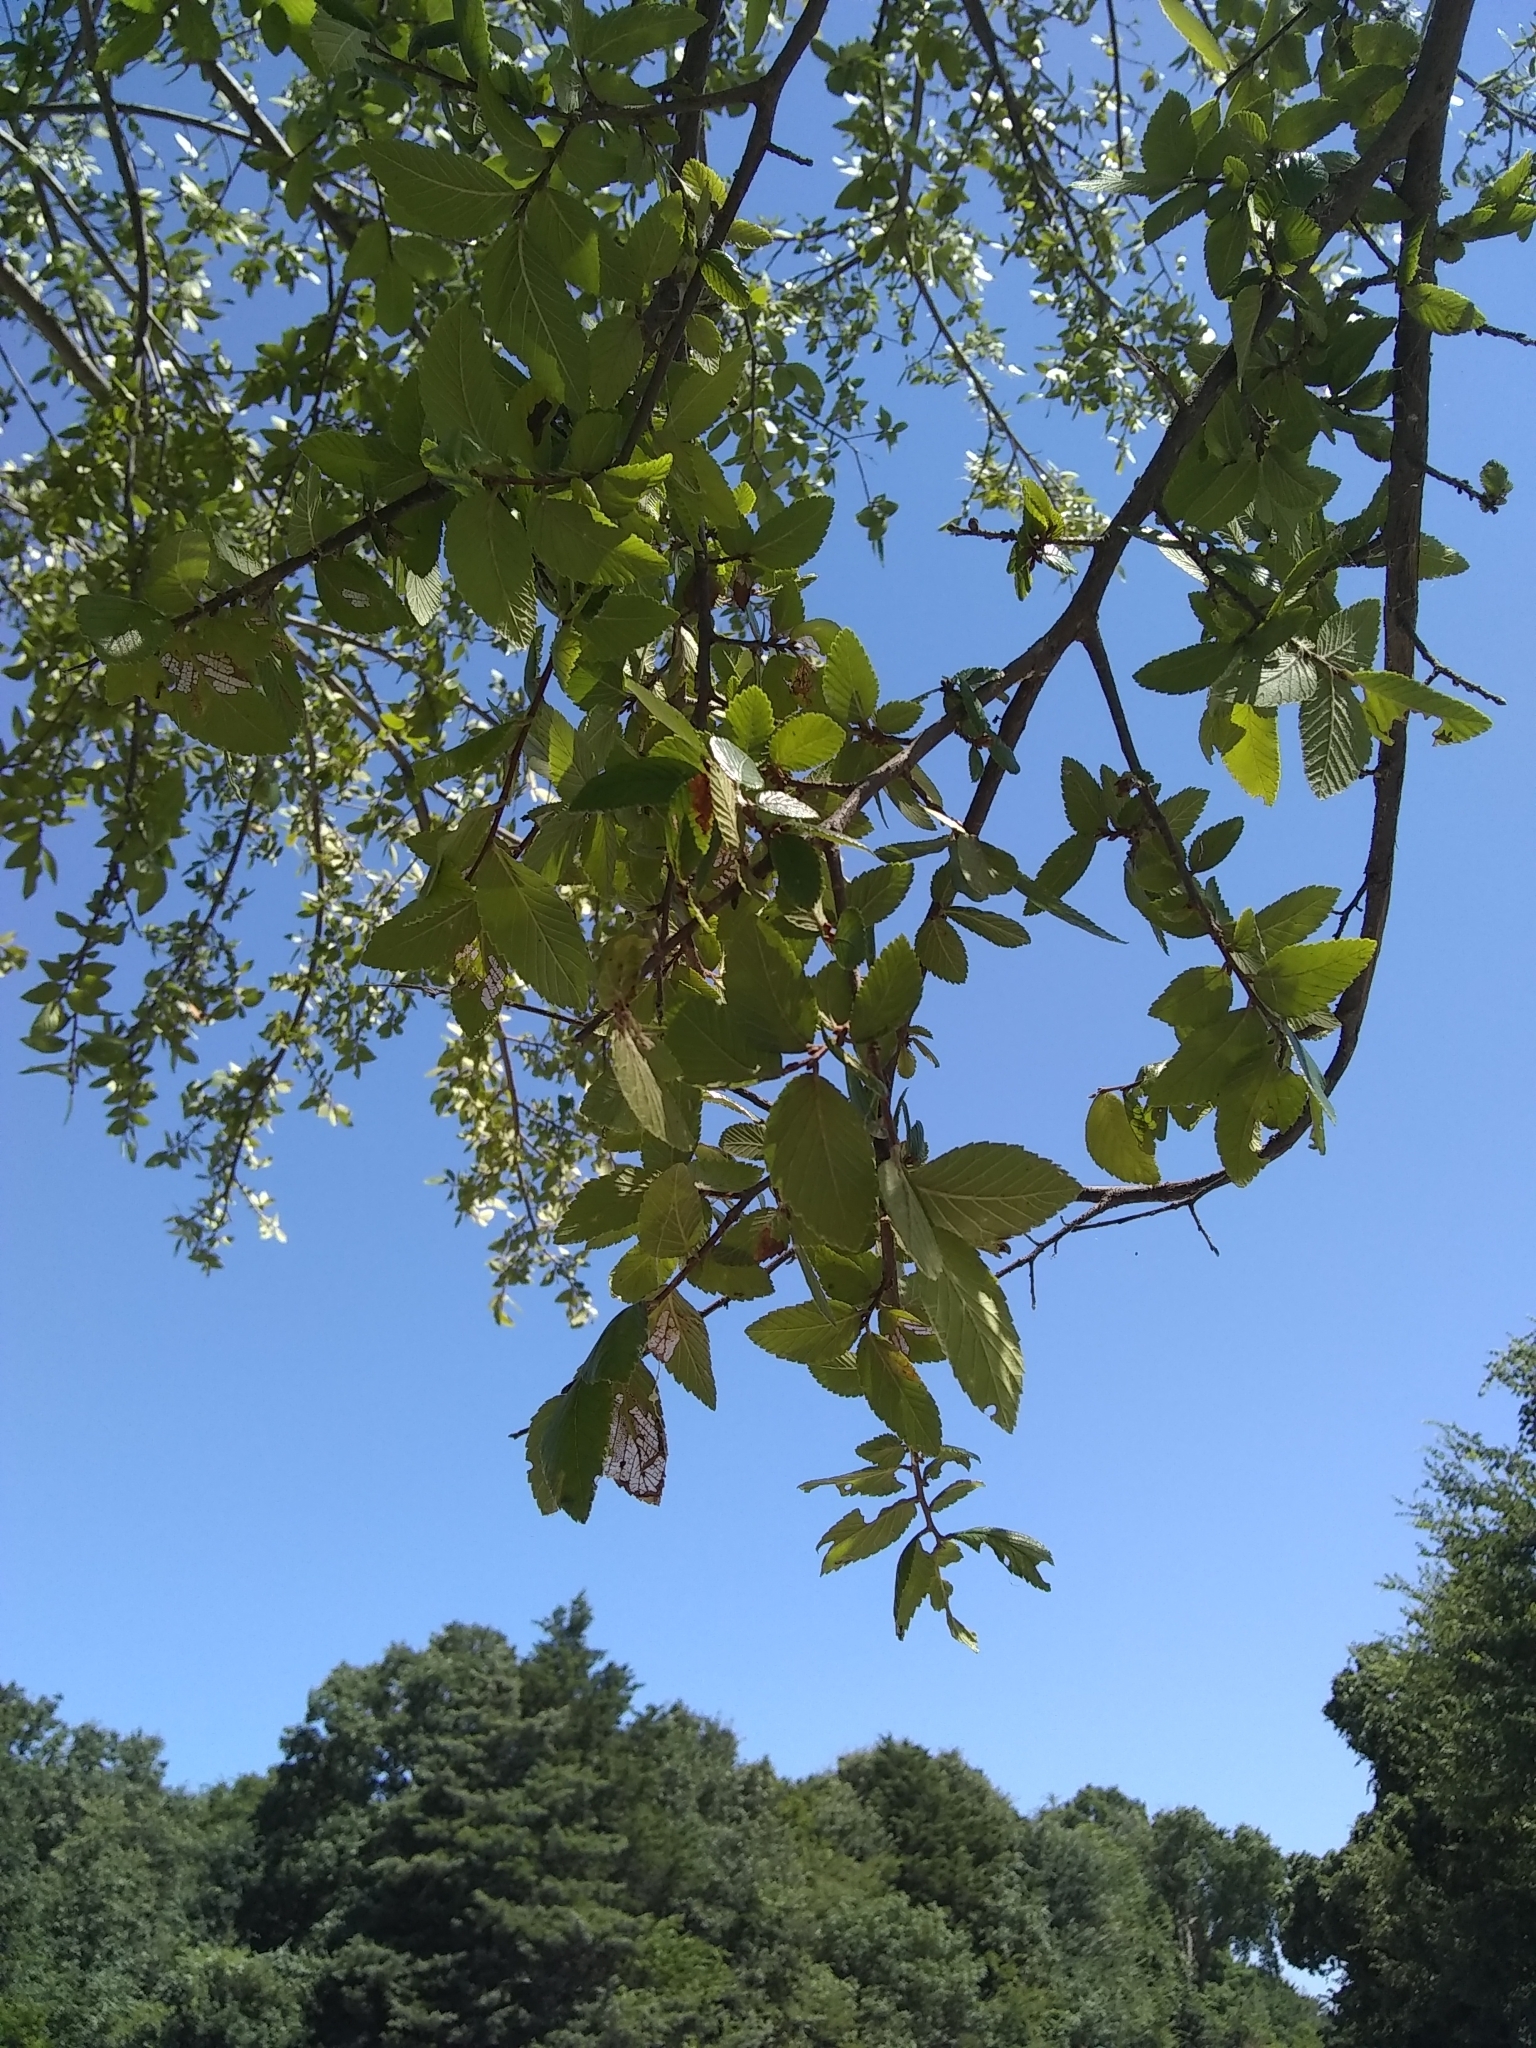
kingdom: Plantae
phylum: Tracheophyta
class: Magnoliopsida
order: Rosales
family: Ulmaceae
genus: Ulmus
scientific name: Ulmus crassifolia
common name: Basket elm
